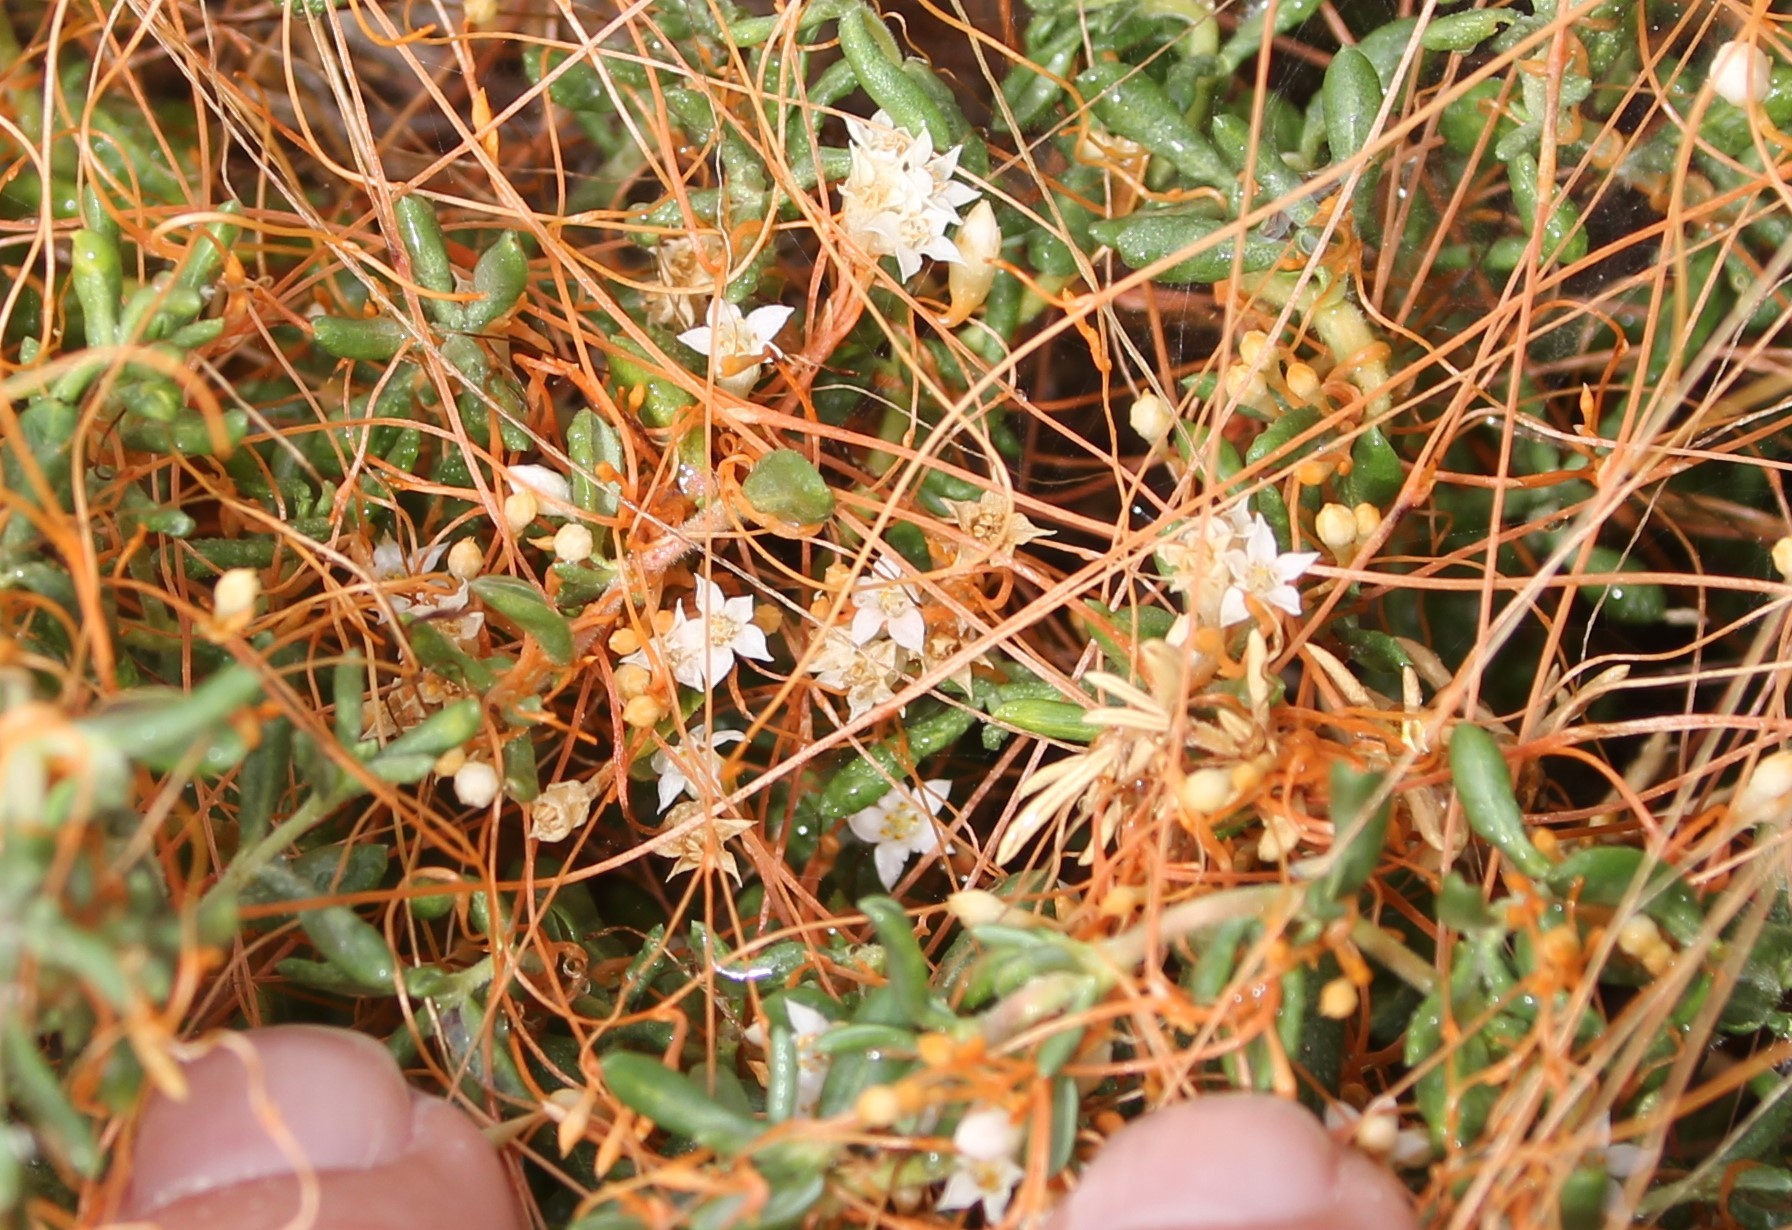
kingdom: Plantae
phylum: Tracheophyta
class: Magnoliopsida
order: Solanales
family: Convolvulaceae
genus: Cuscuta
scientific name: Cuscuta pacifica
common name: Large saltmarsh dodder
